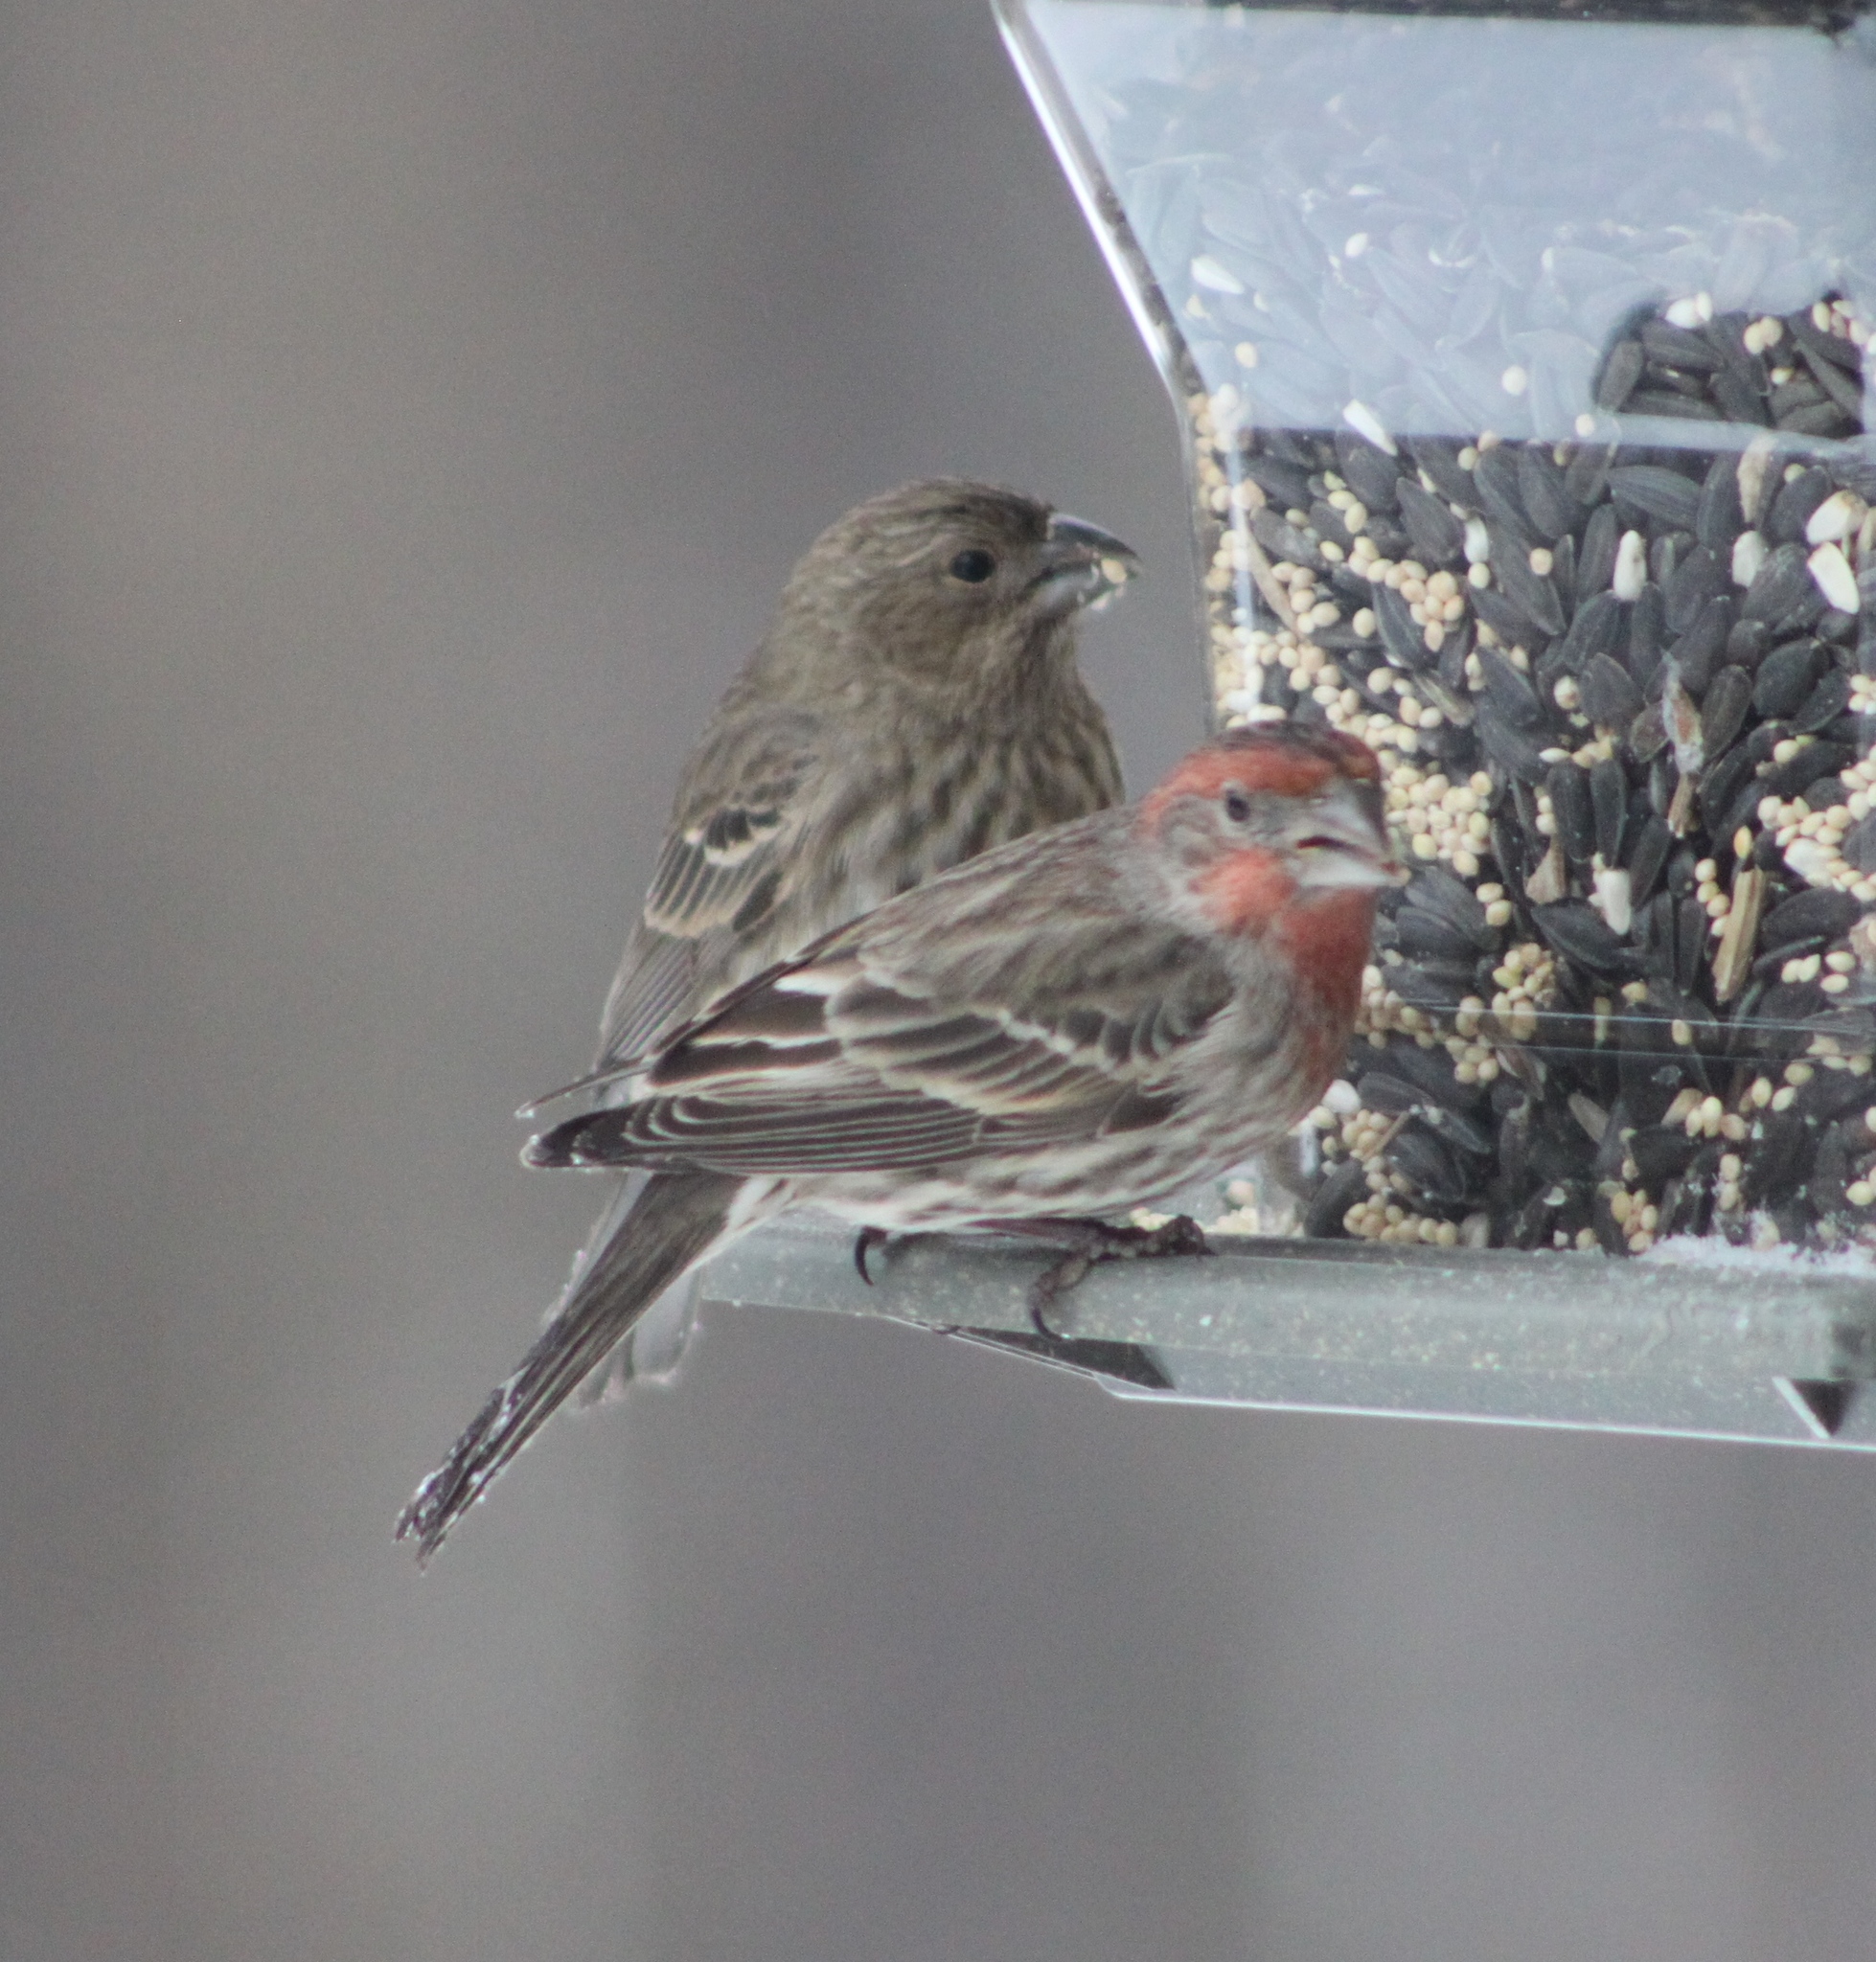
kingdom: Animalia
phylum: Chordata
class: Aves
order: Passeriformes
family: Fringillidae
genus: Haemorhous
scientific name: Haemorhous mexicanus
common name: House finch
